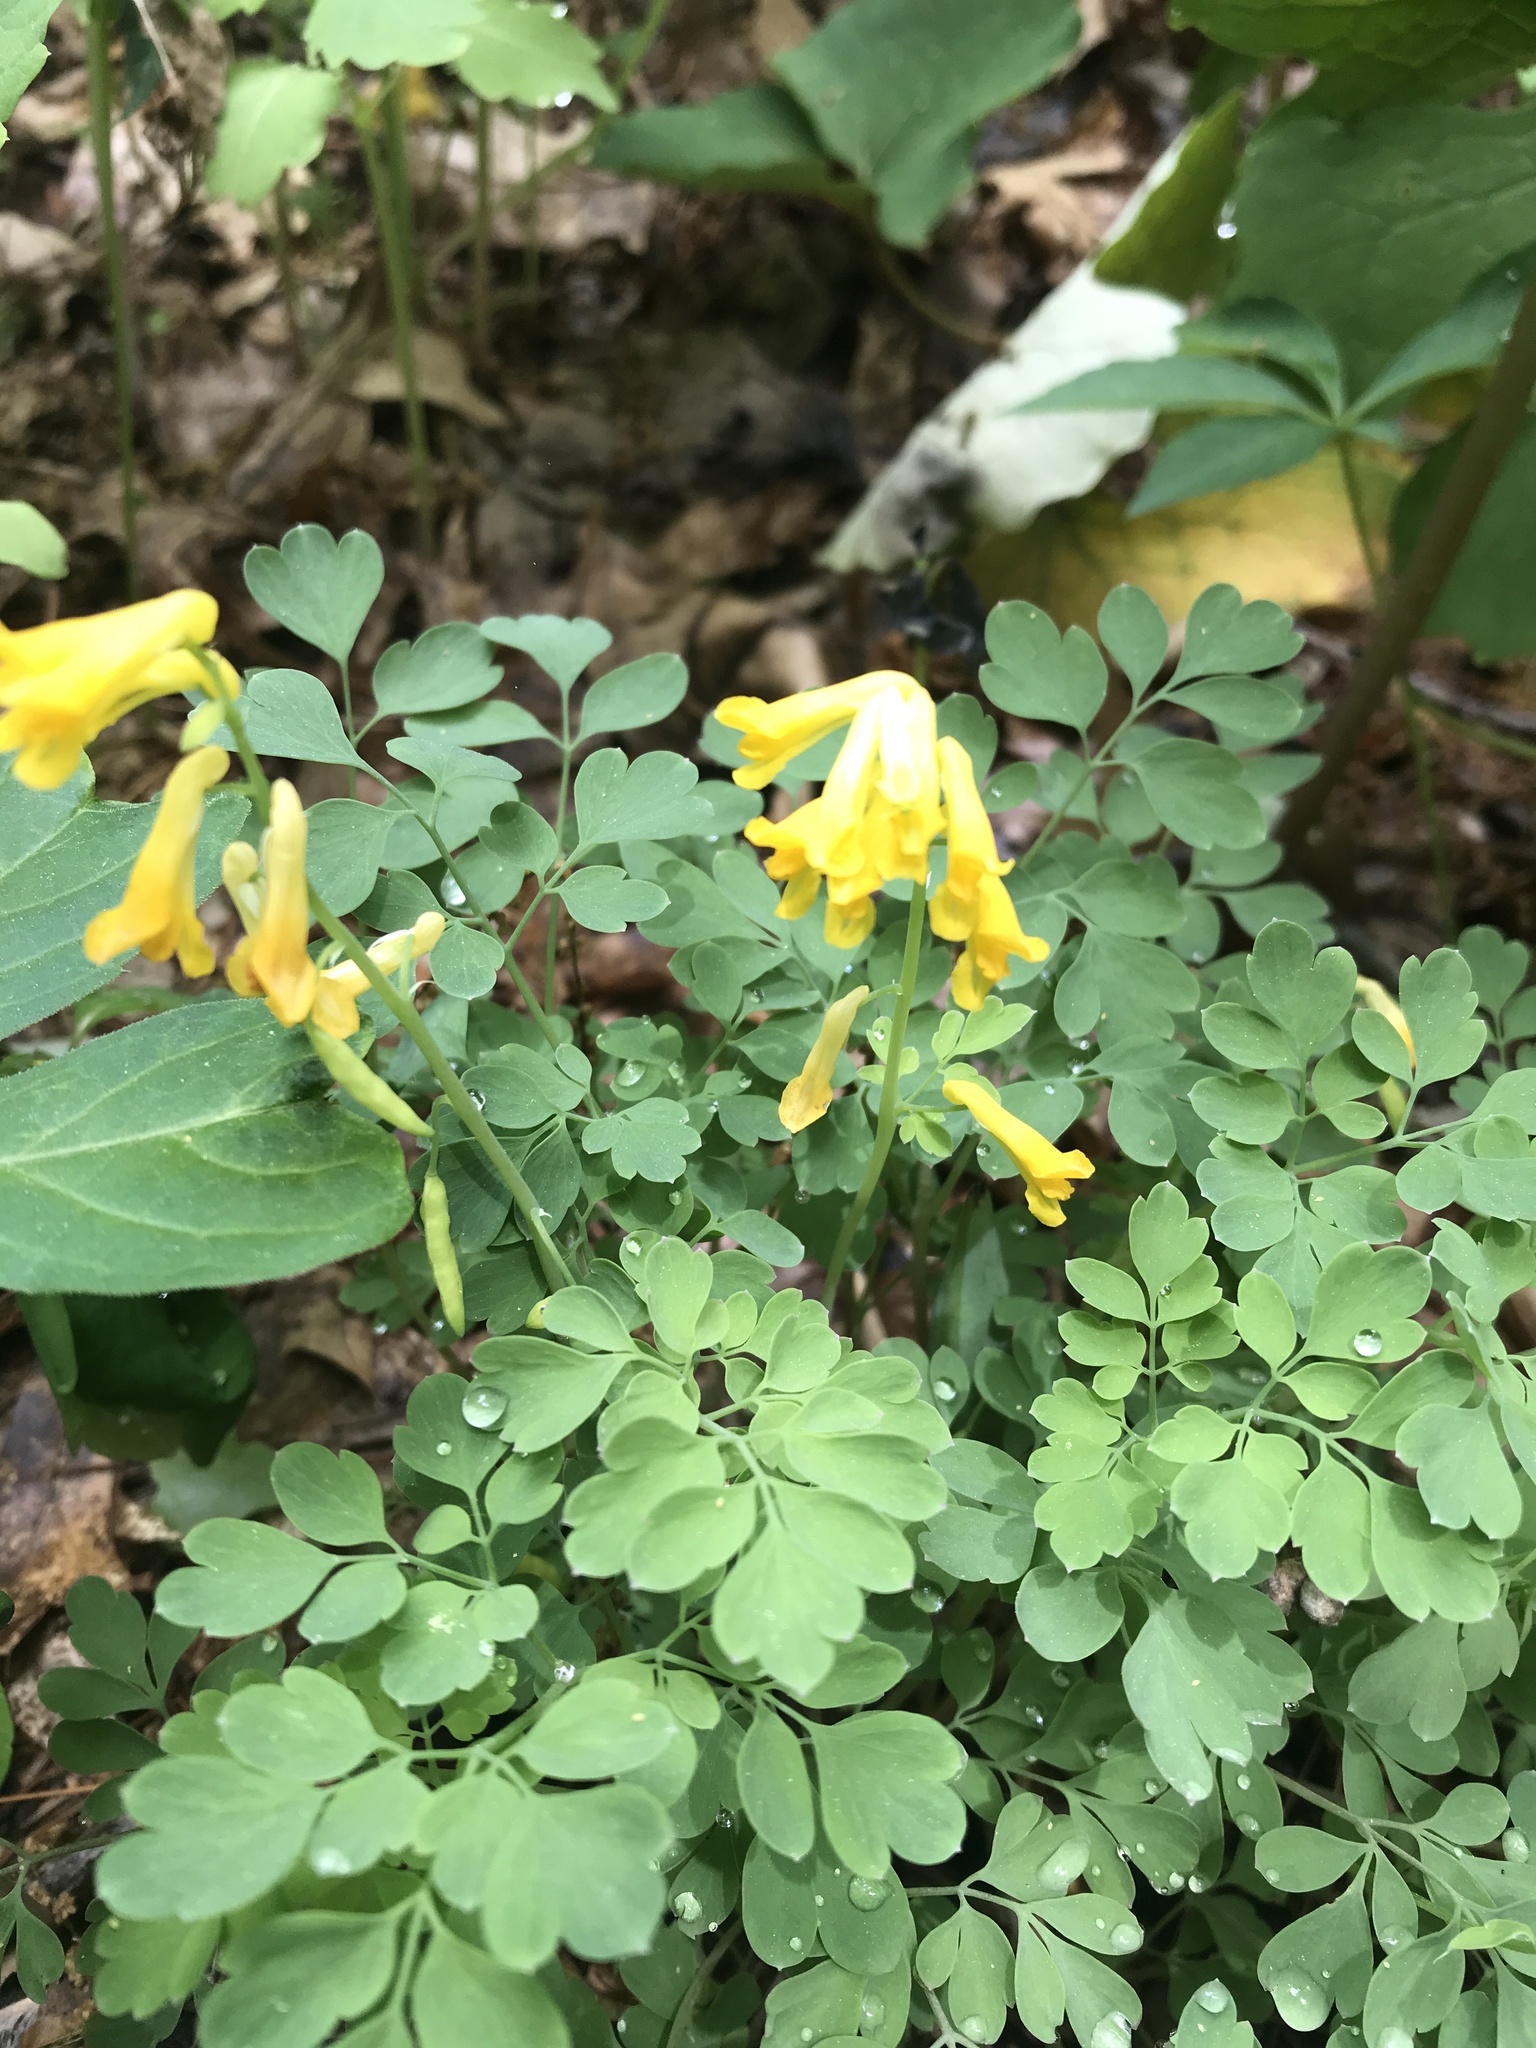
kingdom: Plantae
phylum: Tracheophyta
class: Magnoliopsida
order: Ranunculales
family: Papaveraceae
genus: Pseudofumaria
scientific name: Pseudofumaria lutea
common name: Yellow corydalis
